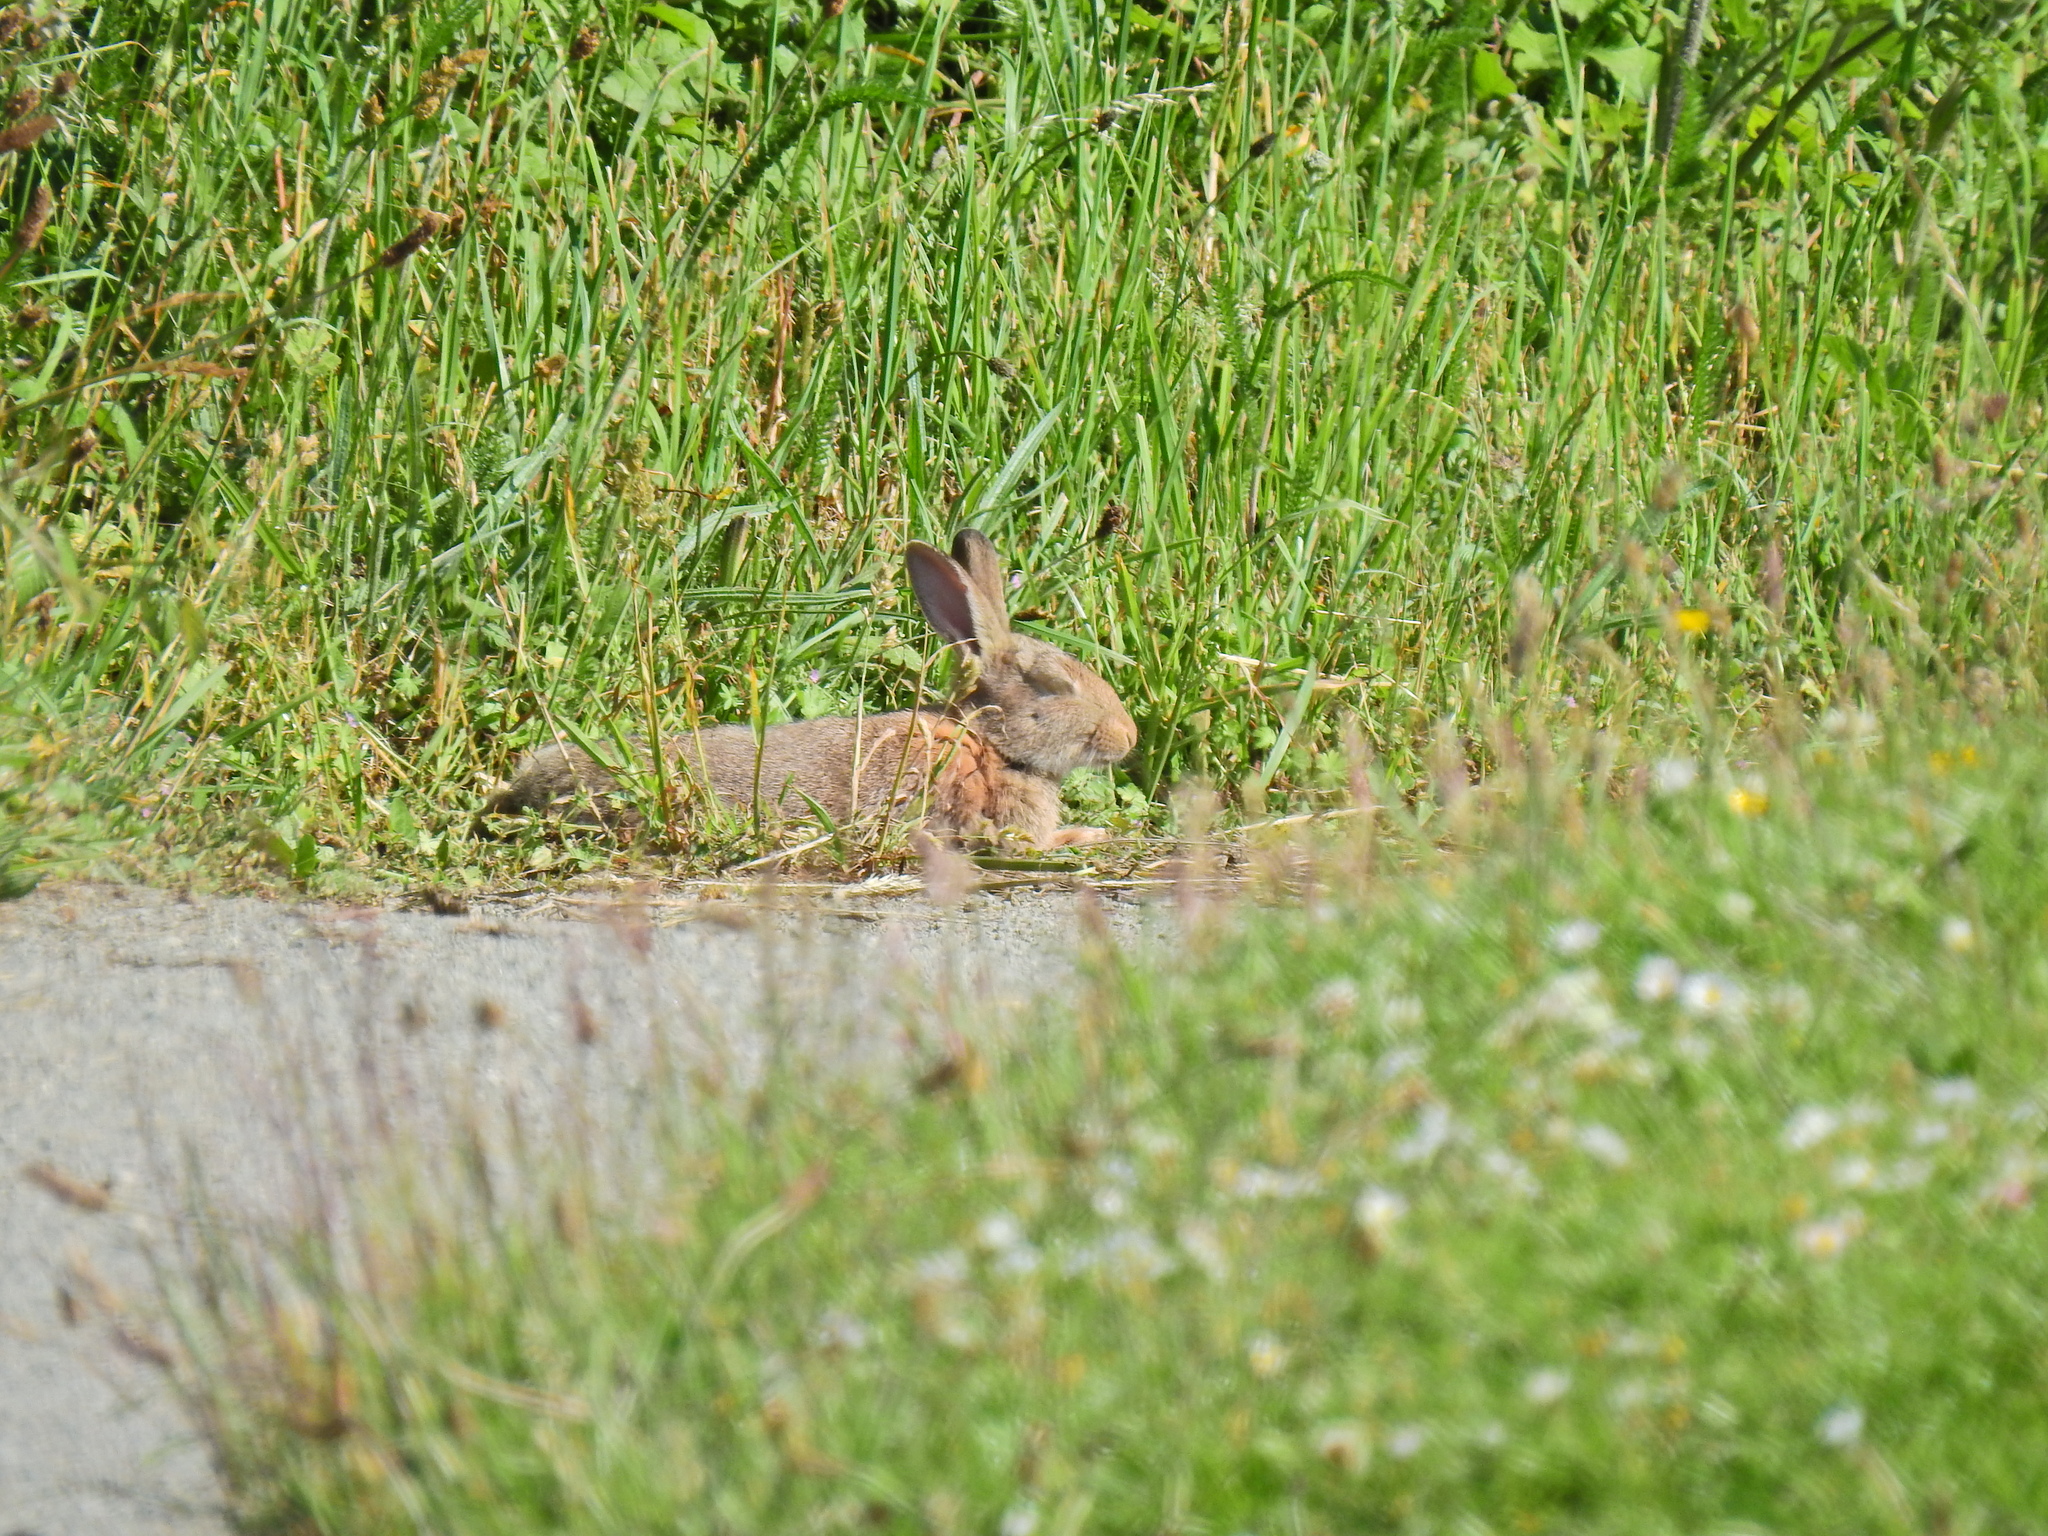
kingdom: Animalia
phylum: Chordata
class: Mammalia
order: Lagomorpha
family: Leporidae
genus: Oryctolagus
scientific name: Oryctolagus cuniculus
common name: European rabbit
